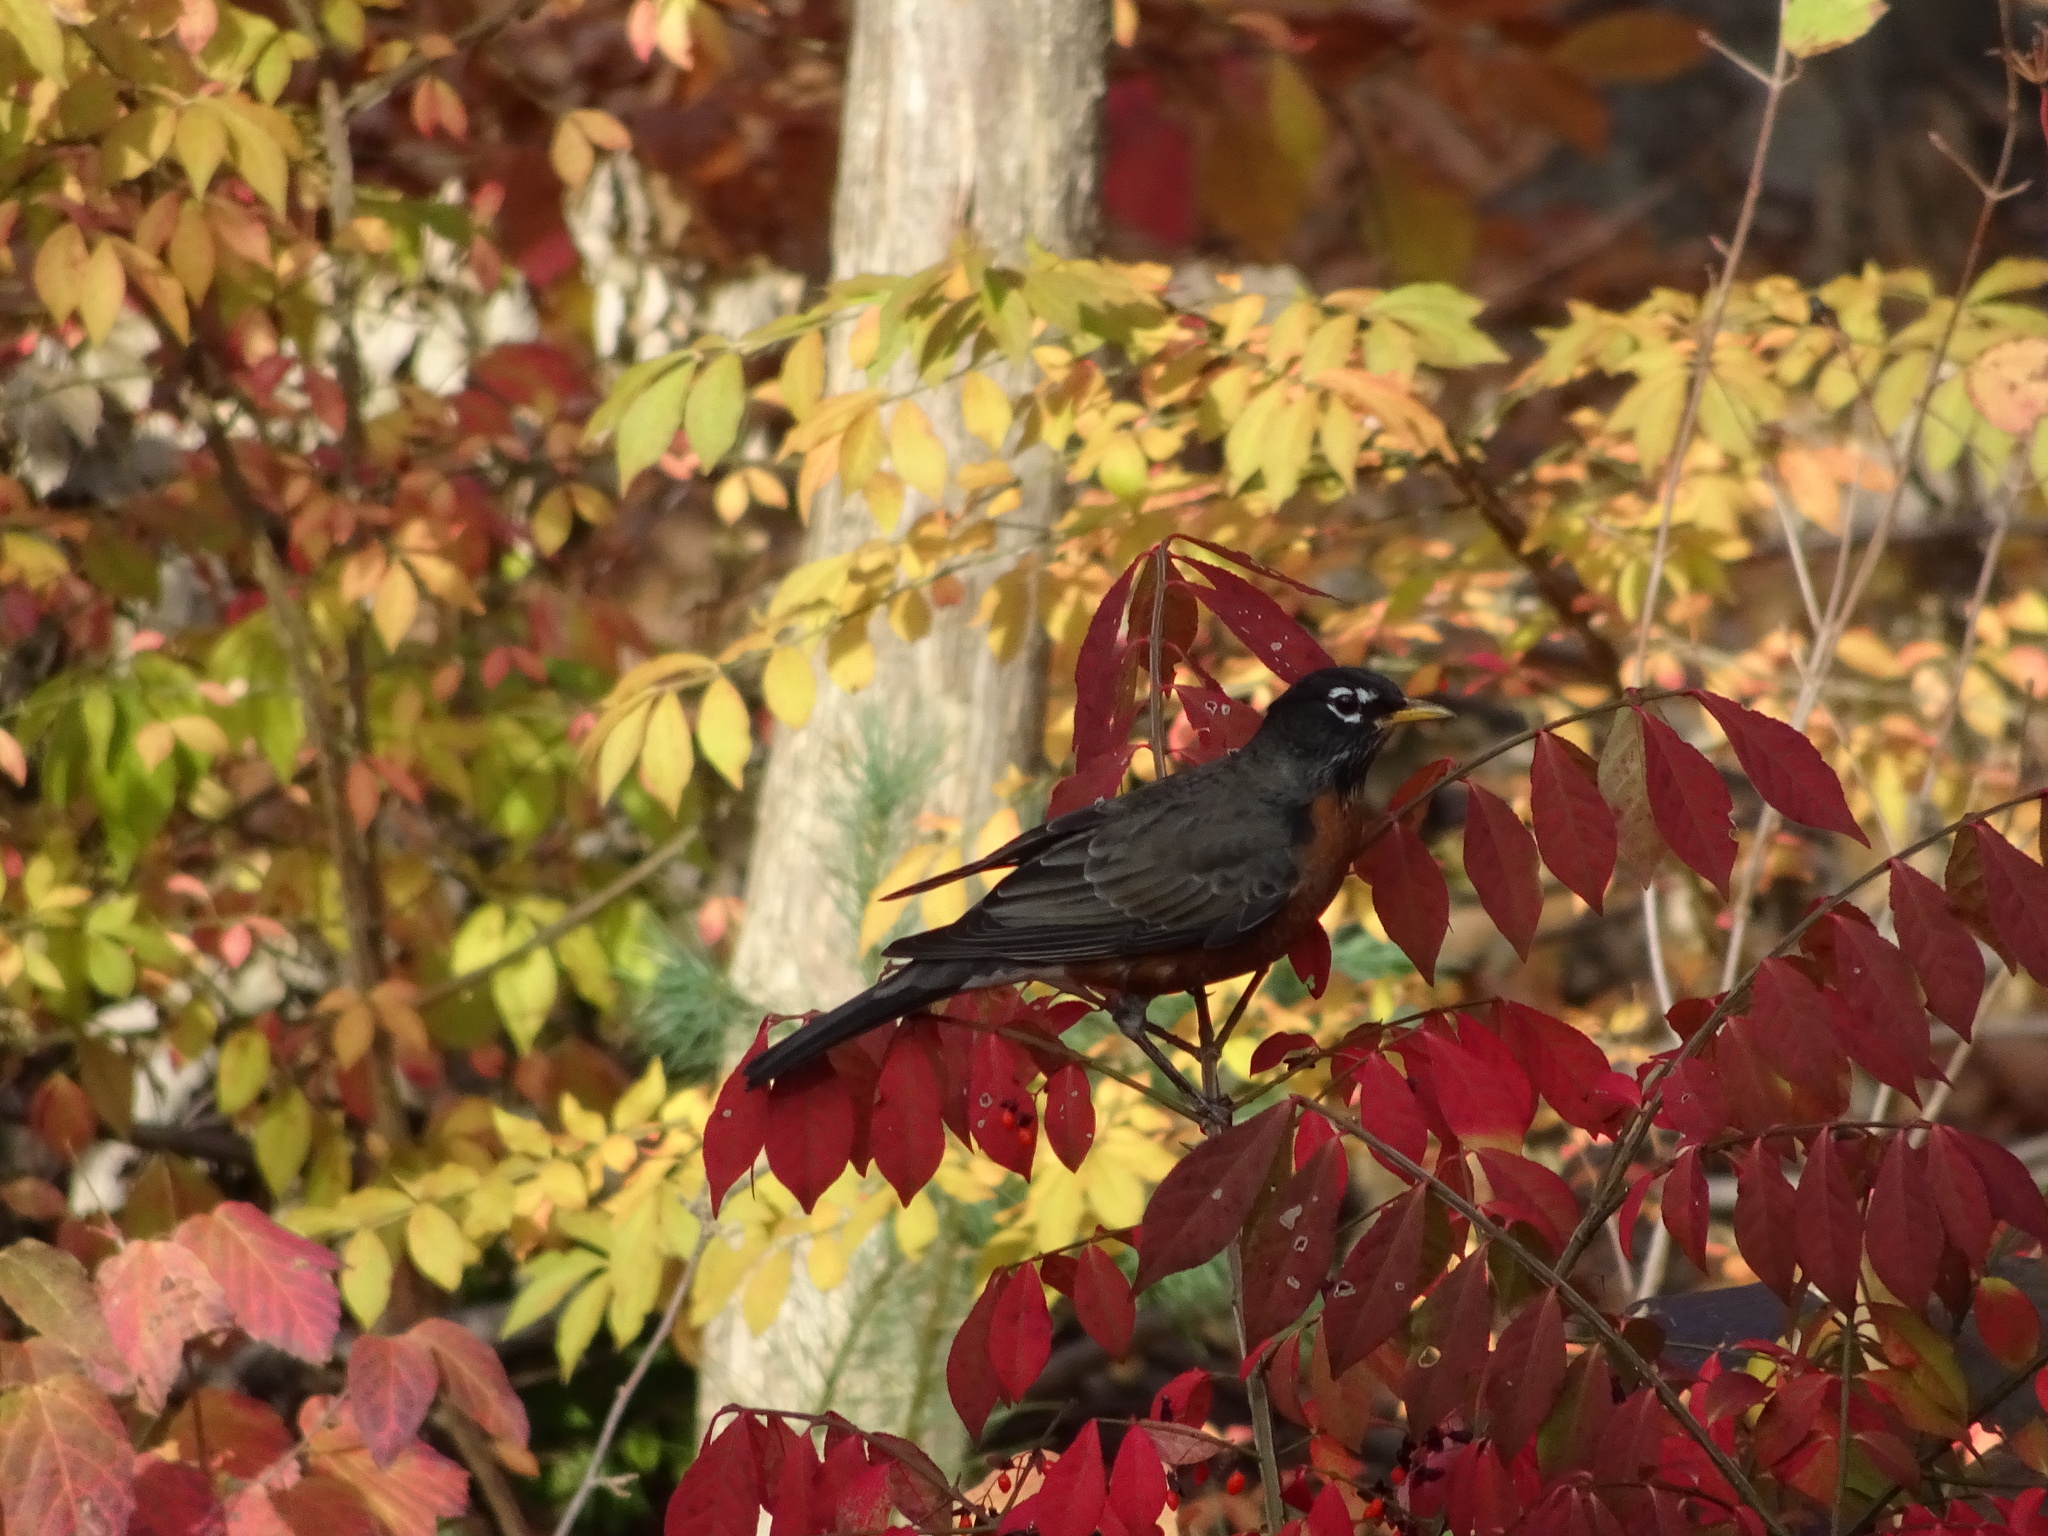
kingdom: Animalia
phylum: Chordata
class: Aves
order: Passeriformes
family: Turdidae
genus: Turdus
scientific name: Turdus migratorius
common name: American robin
